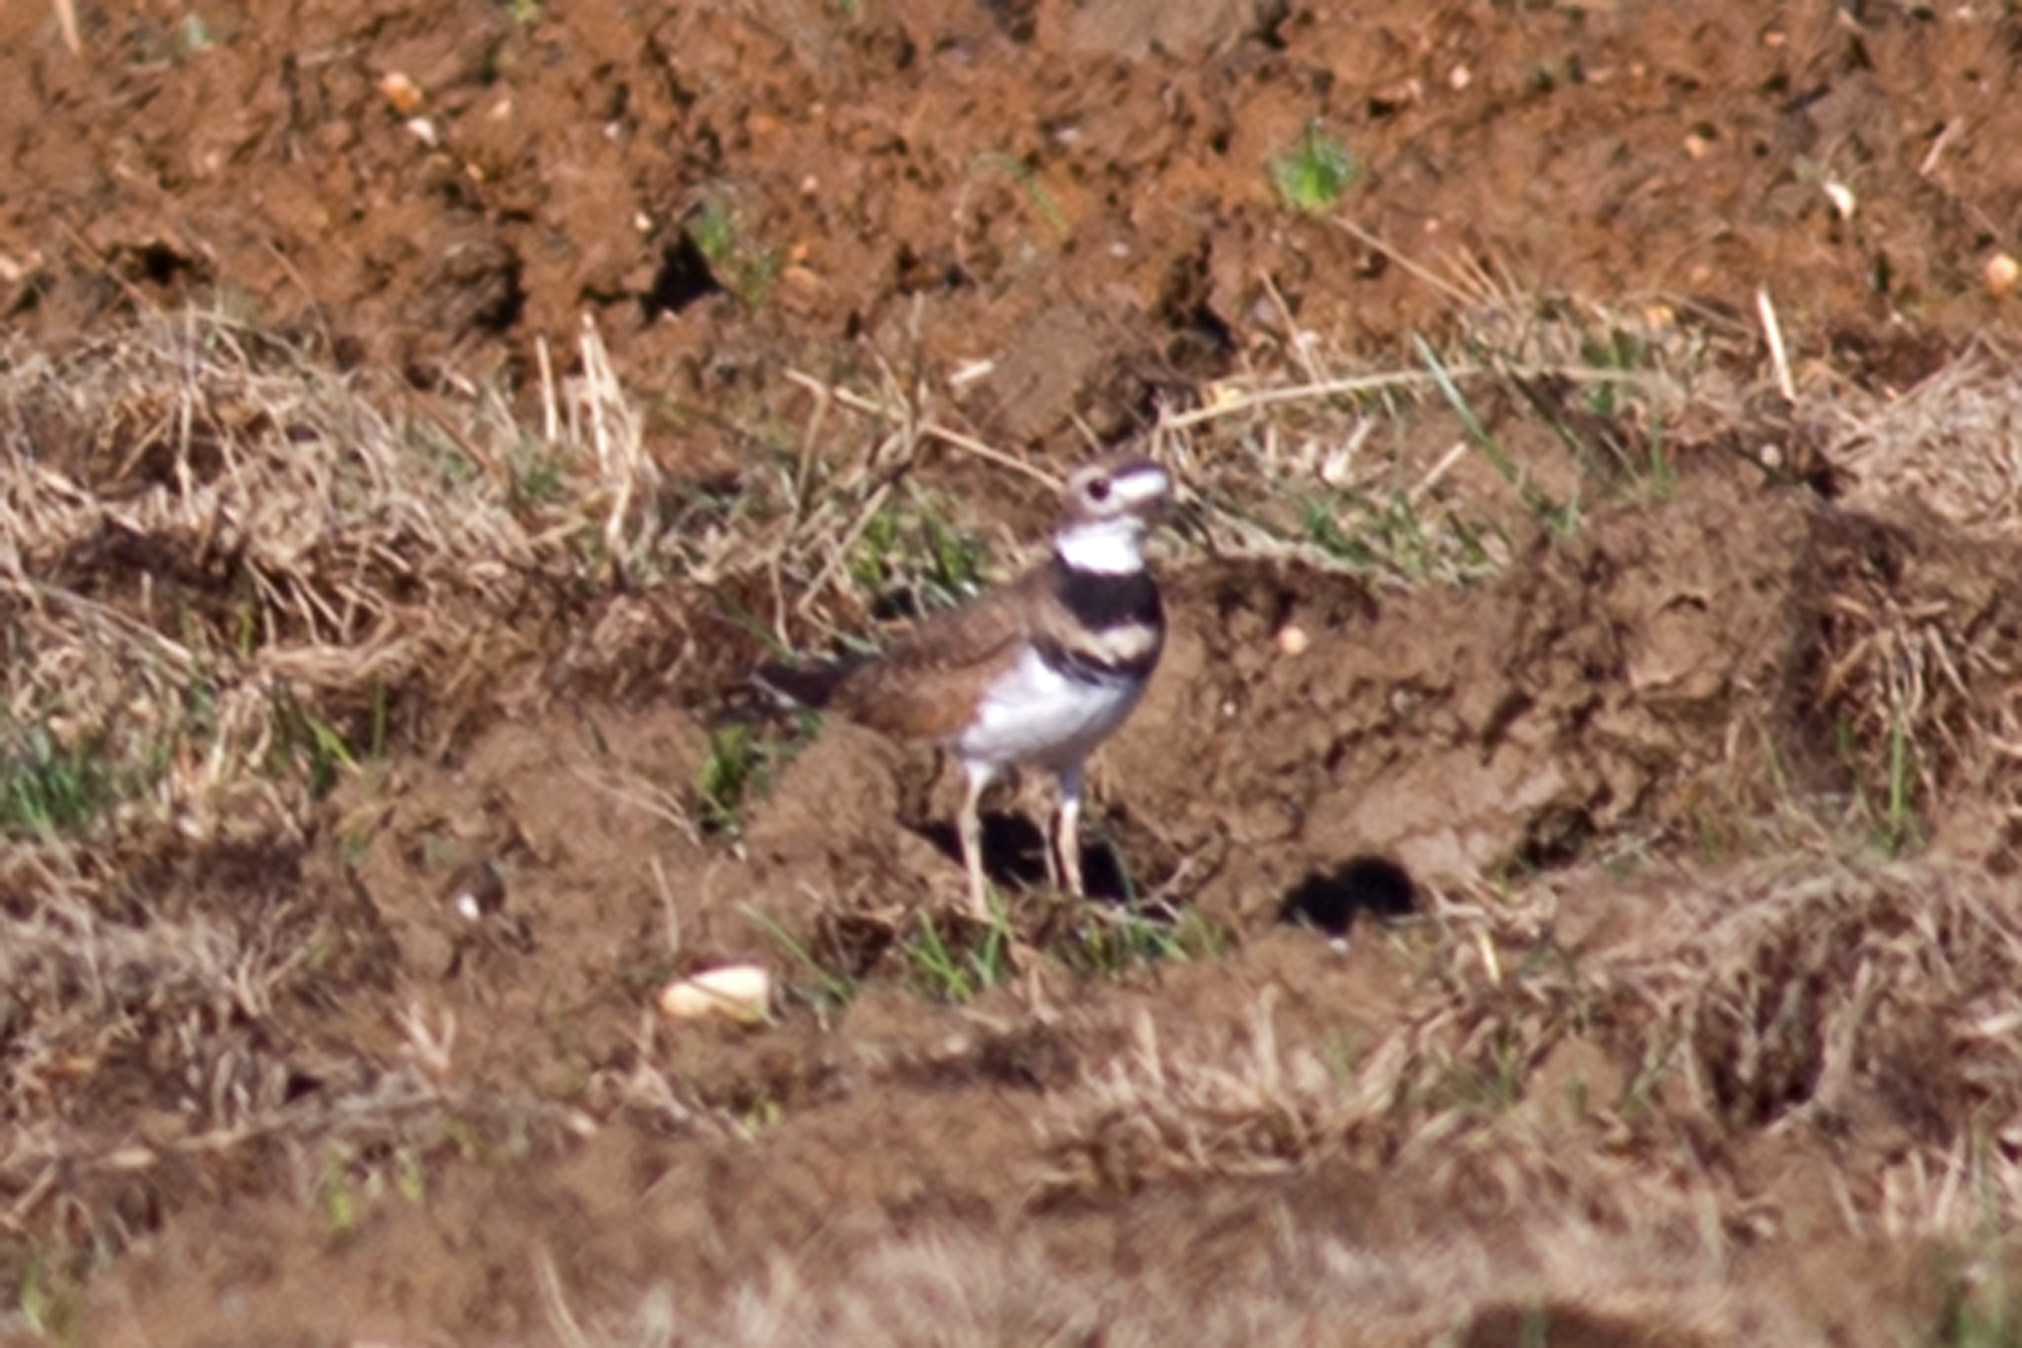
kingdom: Animalia
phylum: Chordata
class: Aves
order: Charadriiformes
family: Charadriidae
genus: Charadrius
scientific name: Charadrius vociferus
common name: Killdeer
